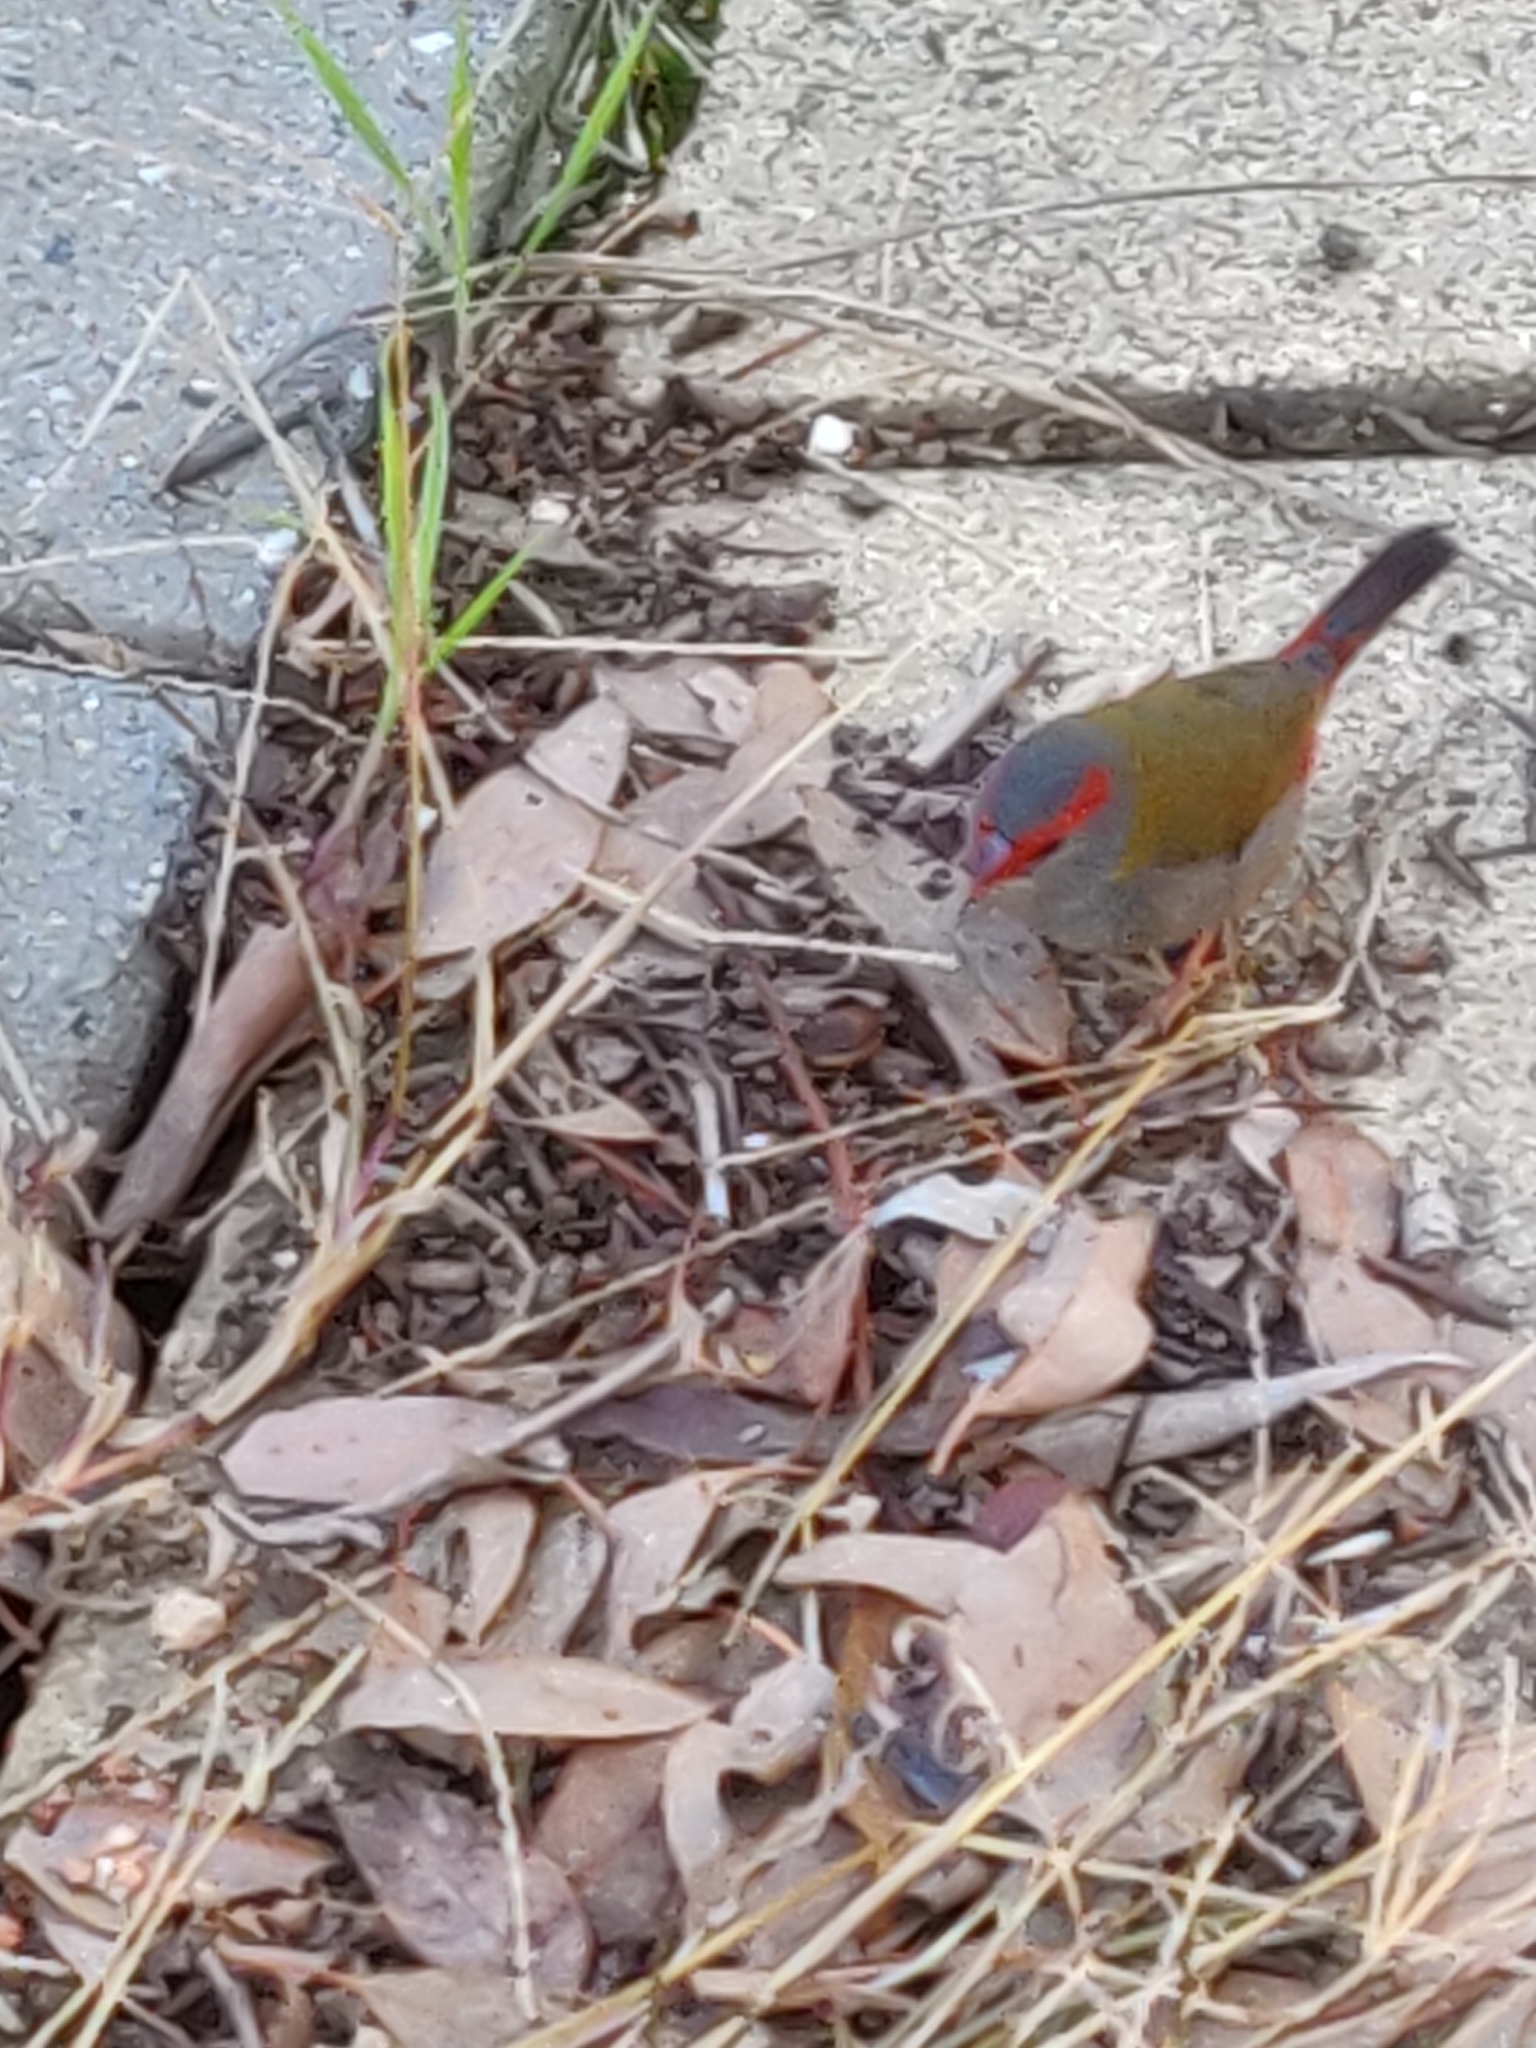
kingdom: Animalia
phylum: Chordata
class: Aves
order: Passeriformes
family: Estrildidae
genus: Neochmia
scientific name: Neochmia temporalis
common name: Red-browed finch
